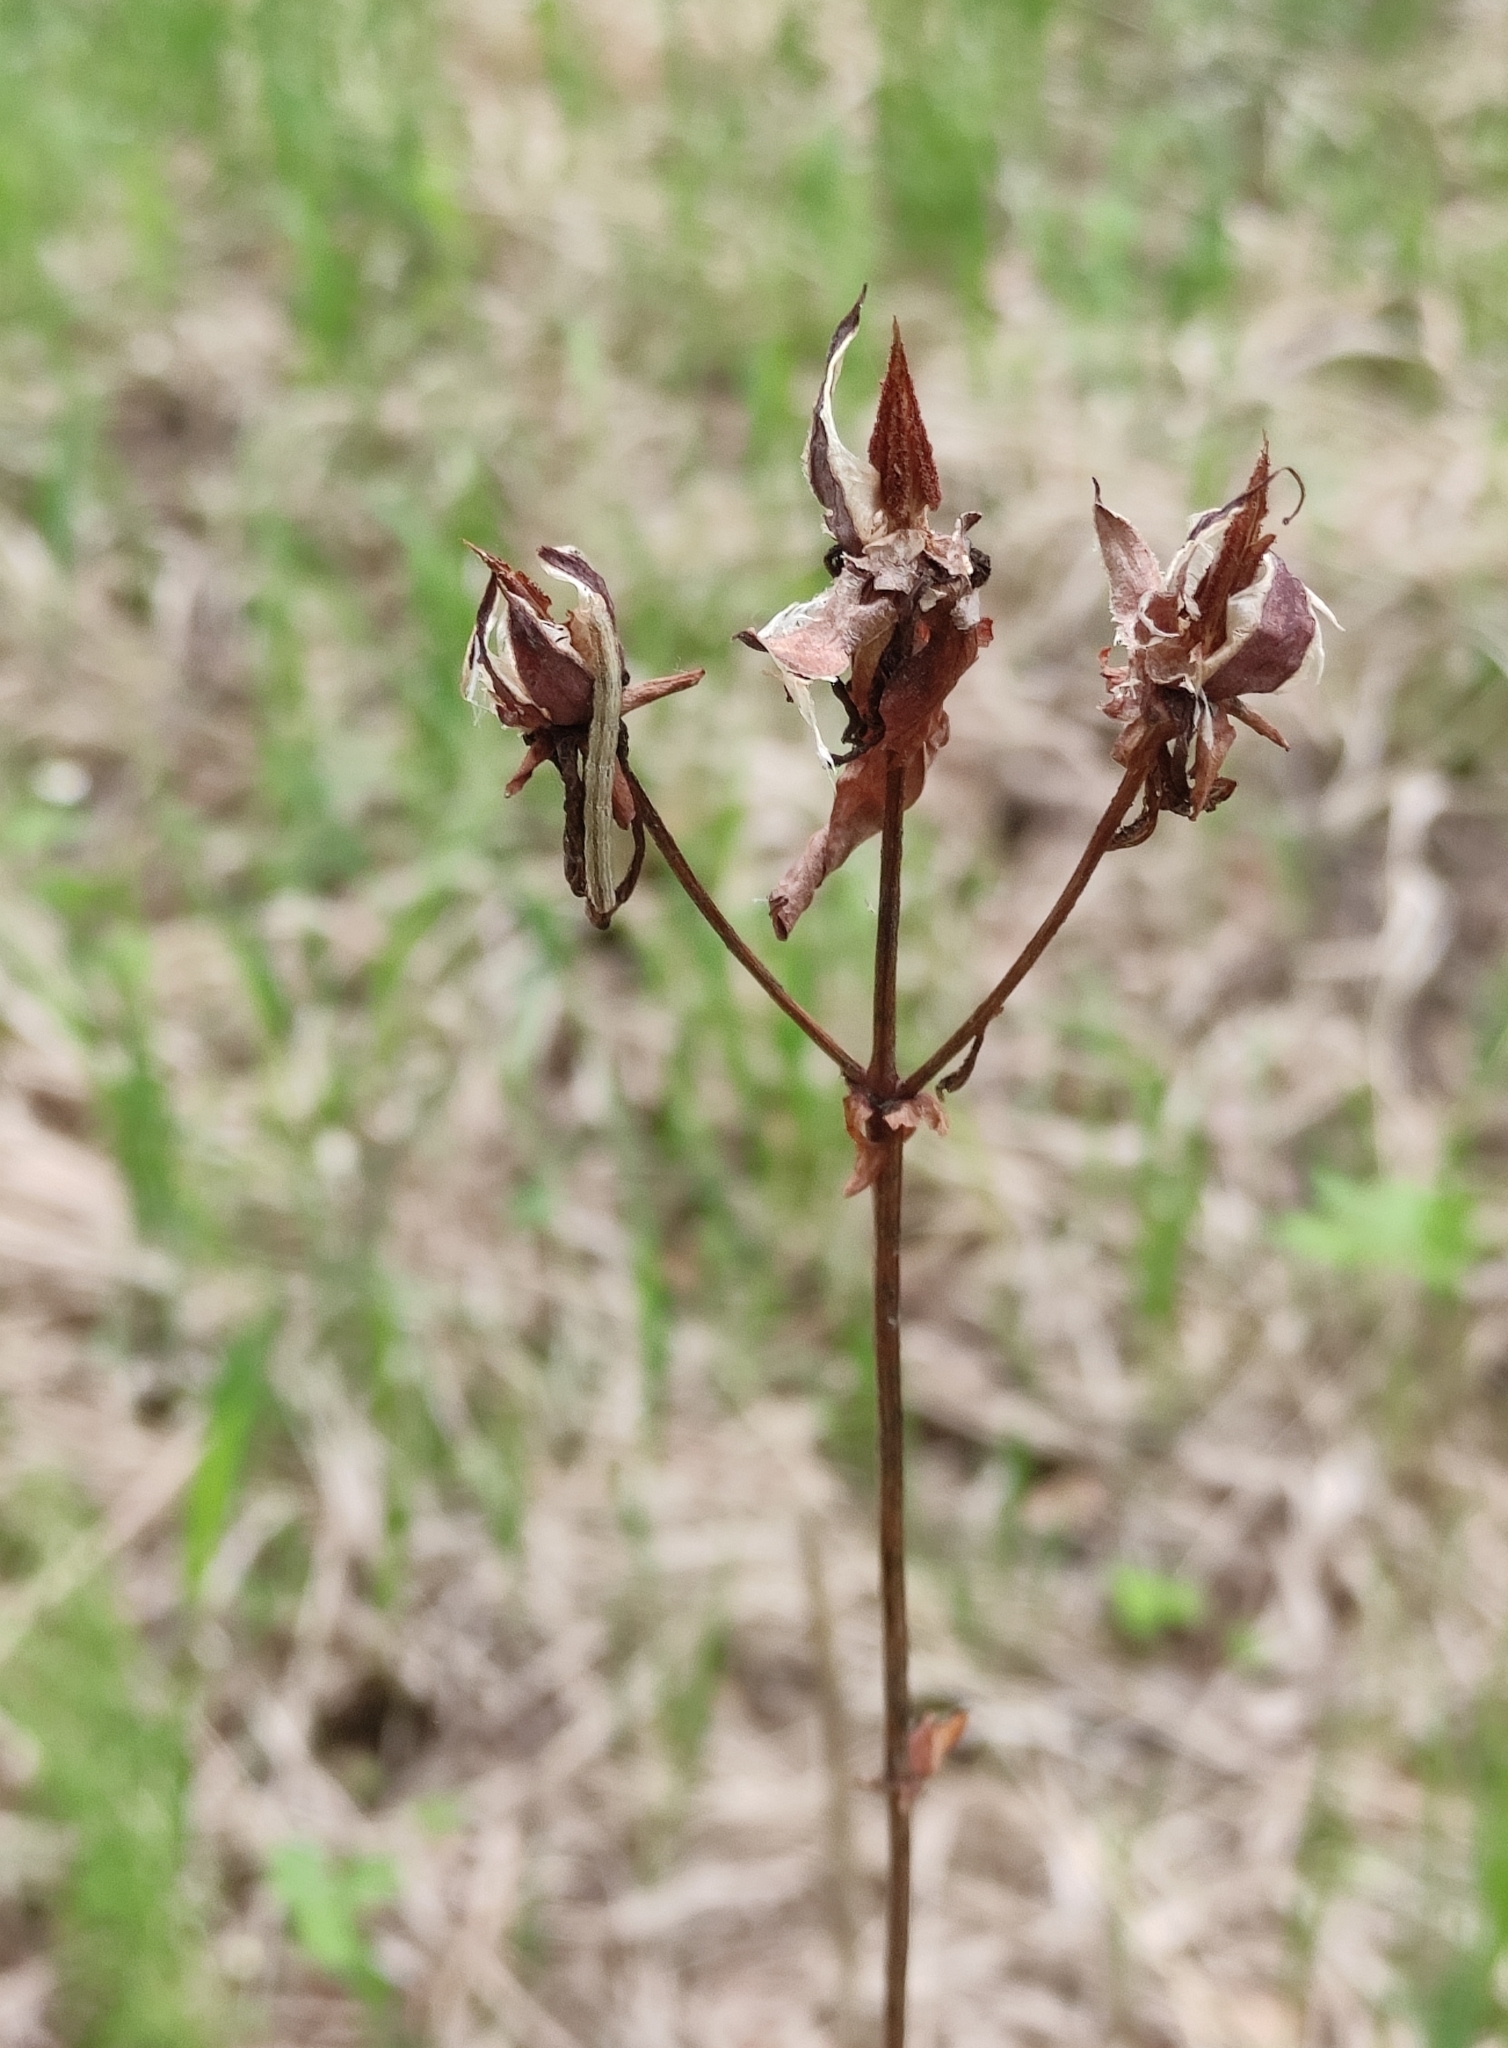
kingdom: Plantae
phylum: Tracheophyta
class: Magnoliopsida
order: Malpighiales
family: Hypericaceae
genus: Hypericum
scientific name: Hypericum ascyron
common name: Giant st. john's-wort
